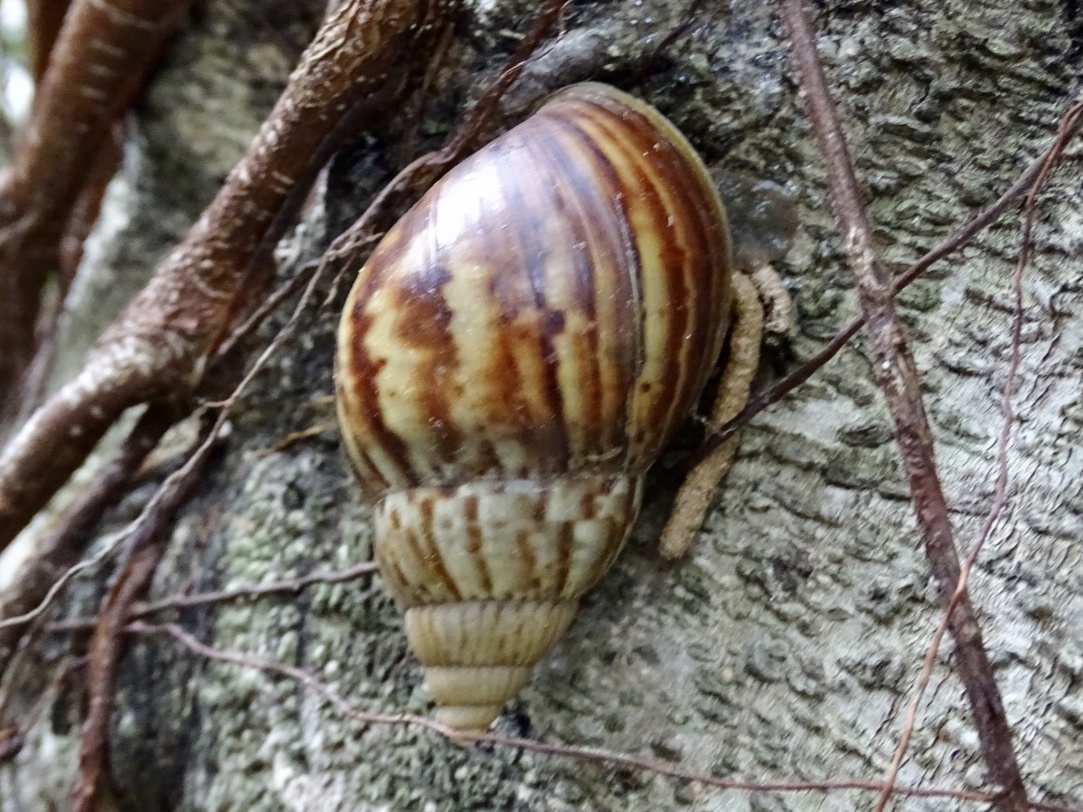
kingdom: Animalia
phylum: Mollusca
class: Gastropoda
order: Stylommatophora
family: Achatinidae
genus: Lissachatina
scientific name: Lissachatina fulica
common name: Giant african snail
